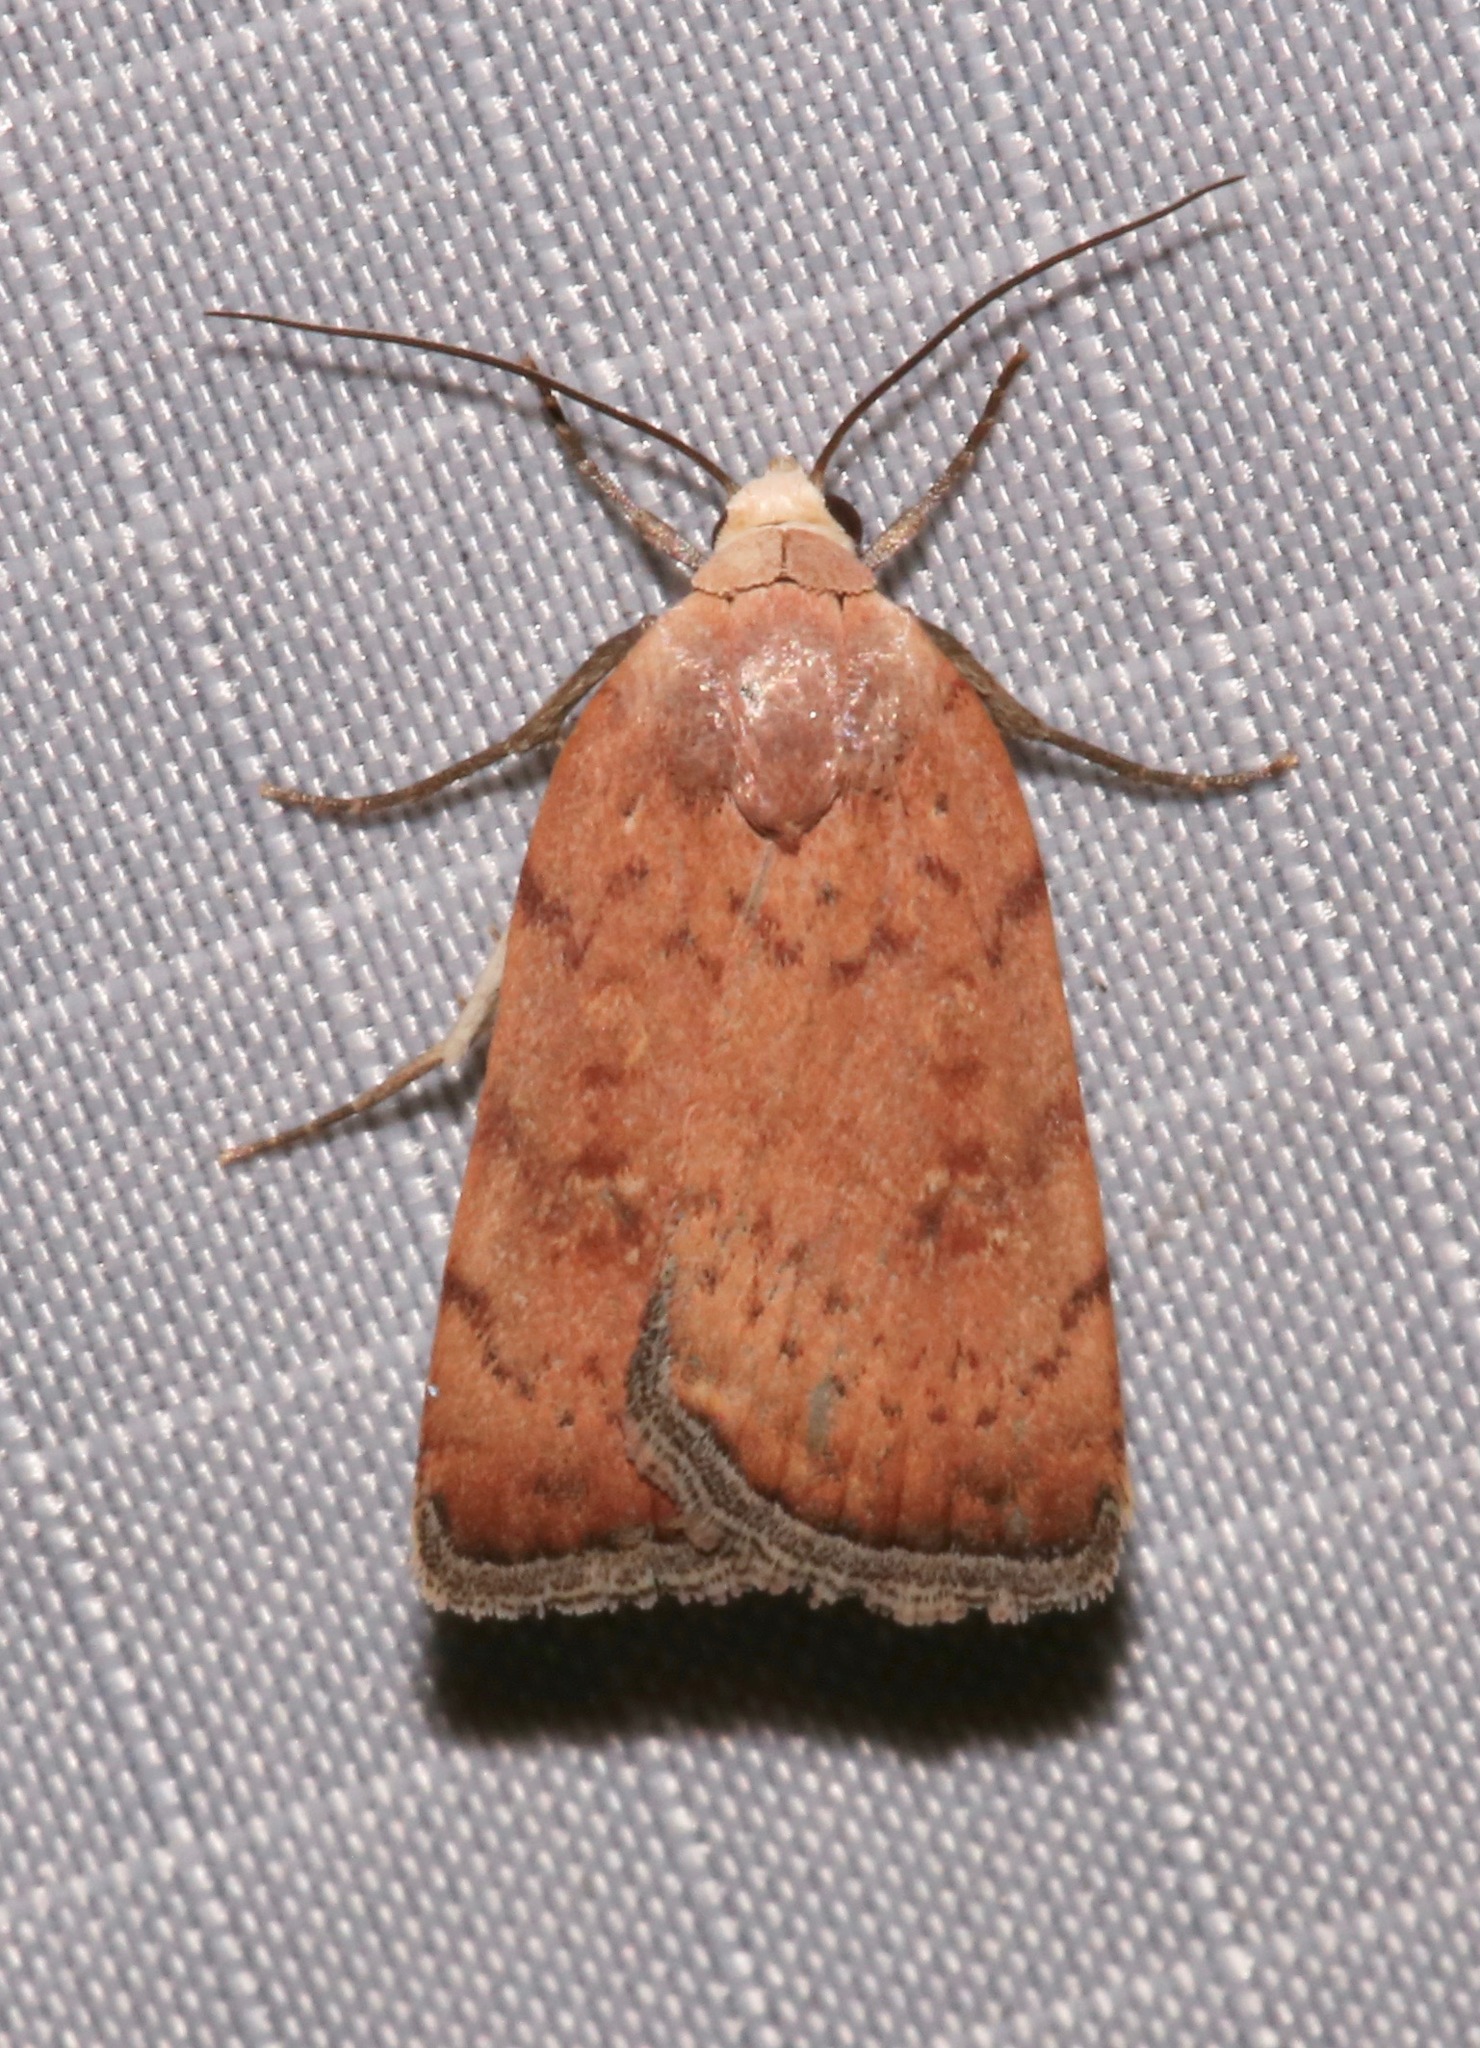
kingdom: Animalia
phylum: Arthropoda
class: Insecta
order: Lepidoptera
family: Noctuidae
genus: Micrathetis
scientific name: Micrathetis triplex
